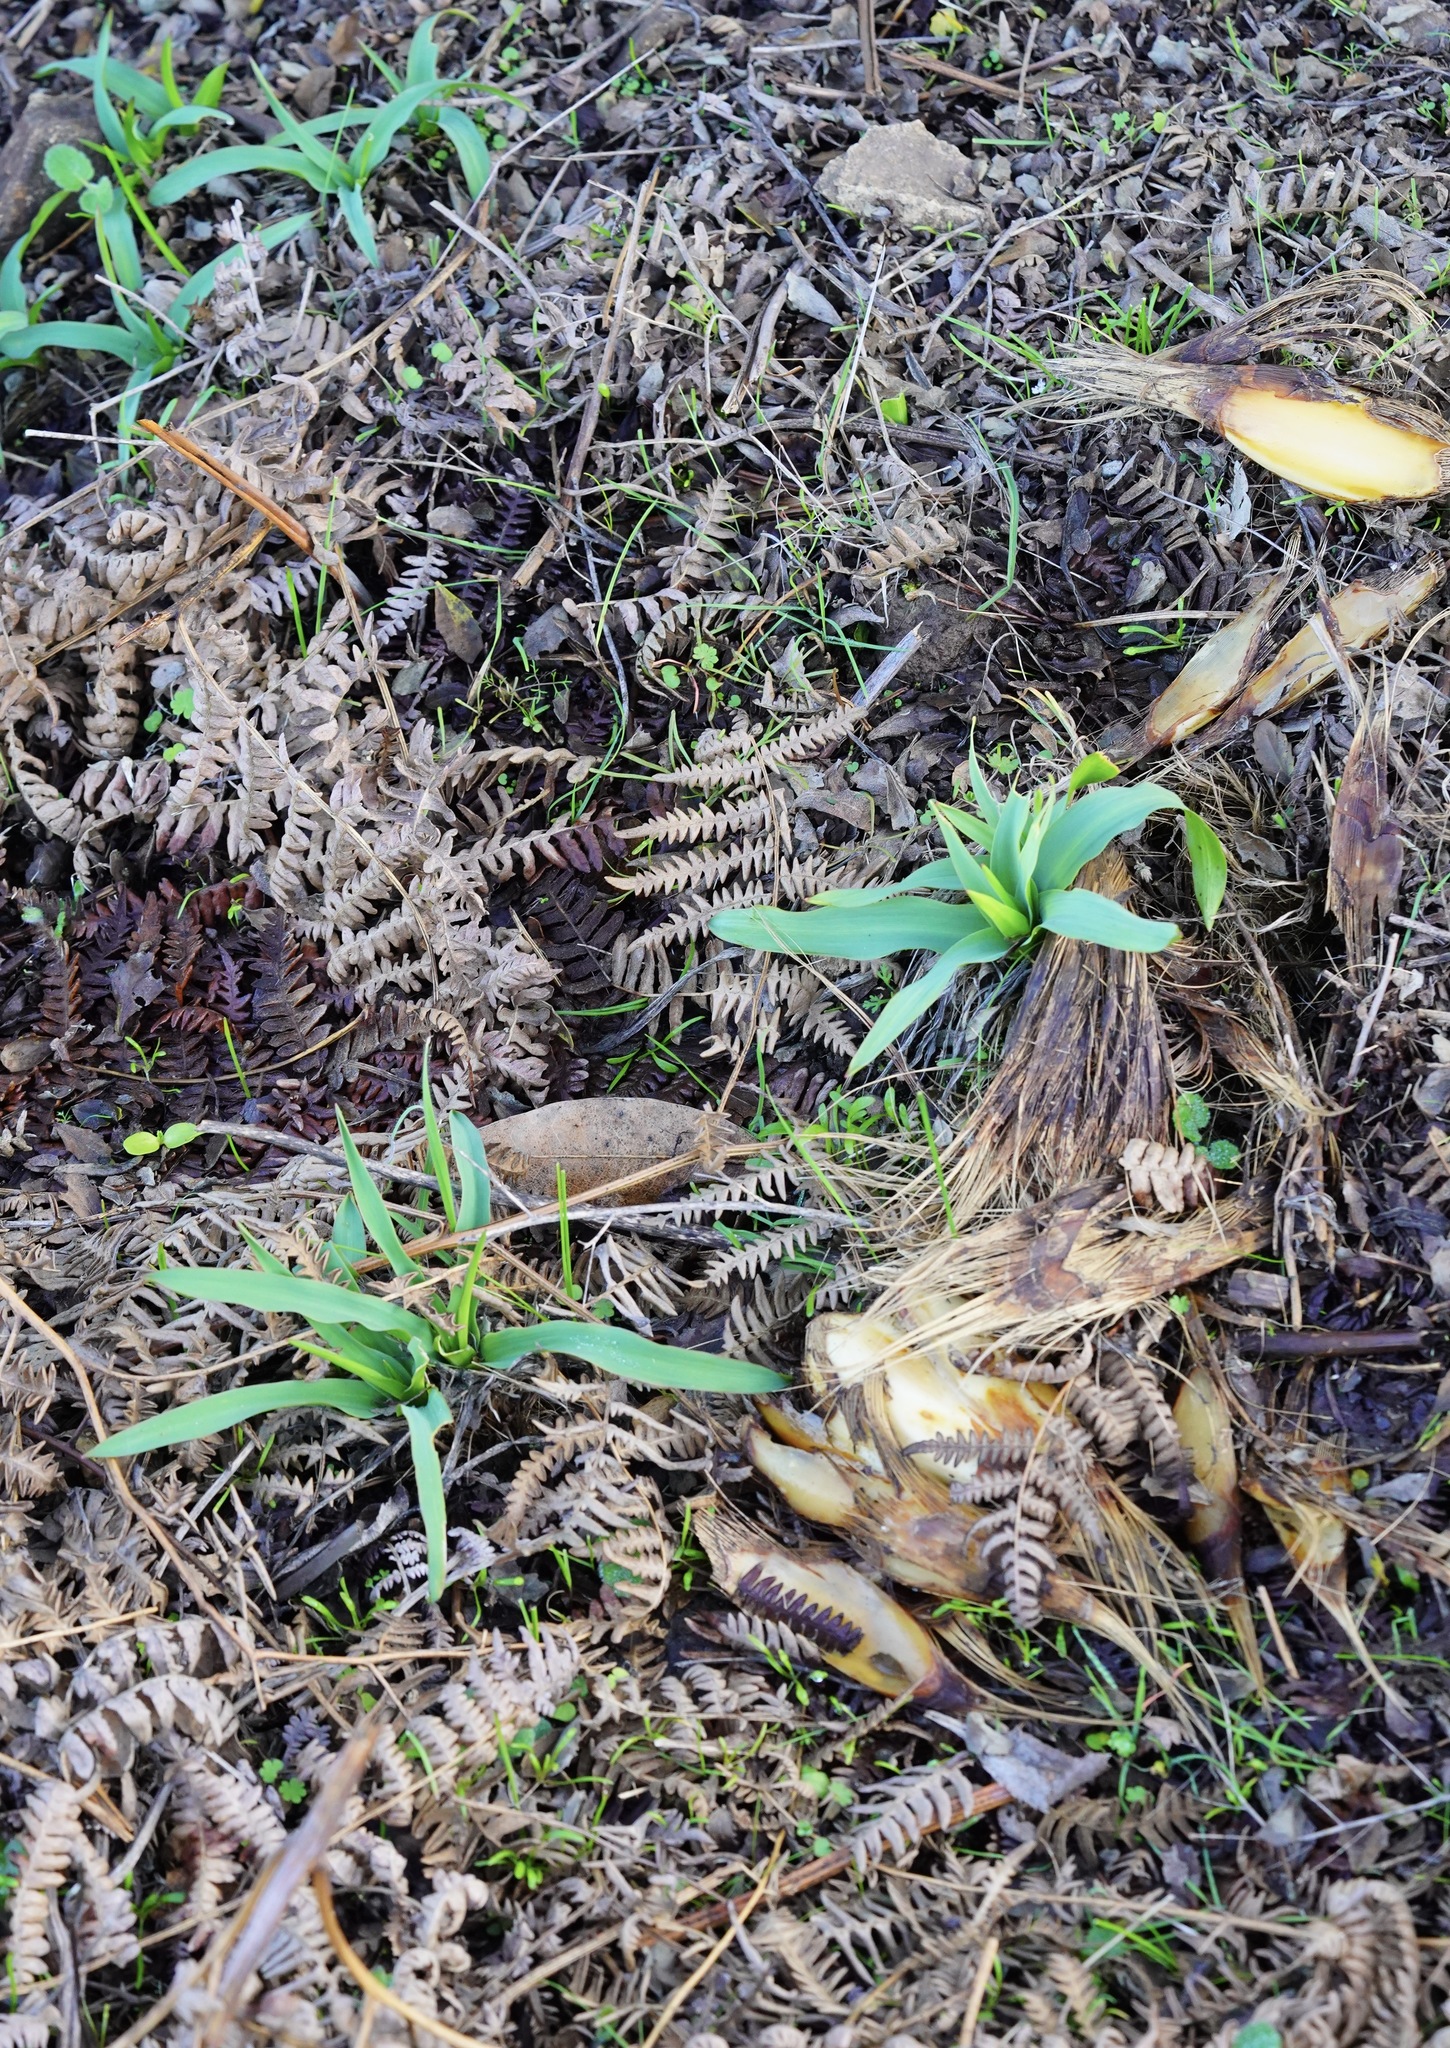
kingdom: Plantae
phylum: Tracheophyta
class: Liliopsida
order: Asparagales
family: Asparagaceae
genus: Chlorogalum
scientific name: Chlorogalum pomeridianum
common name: Amole
